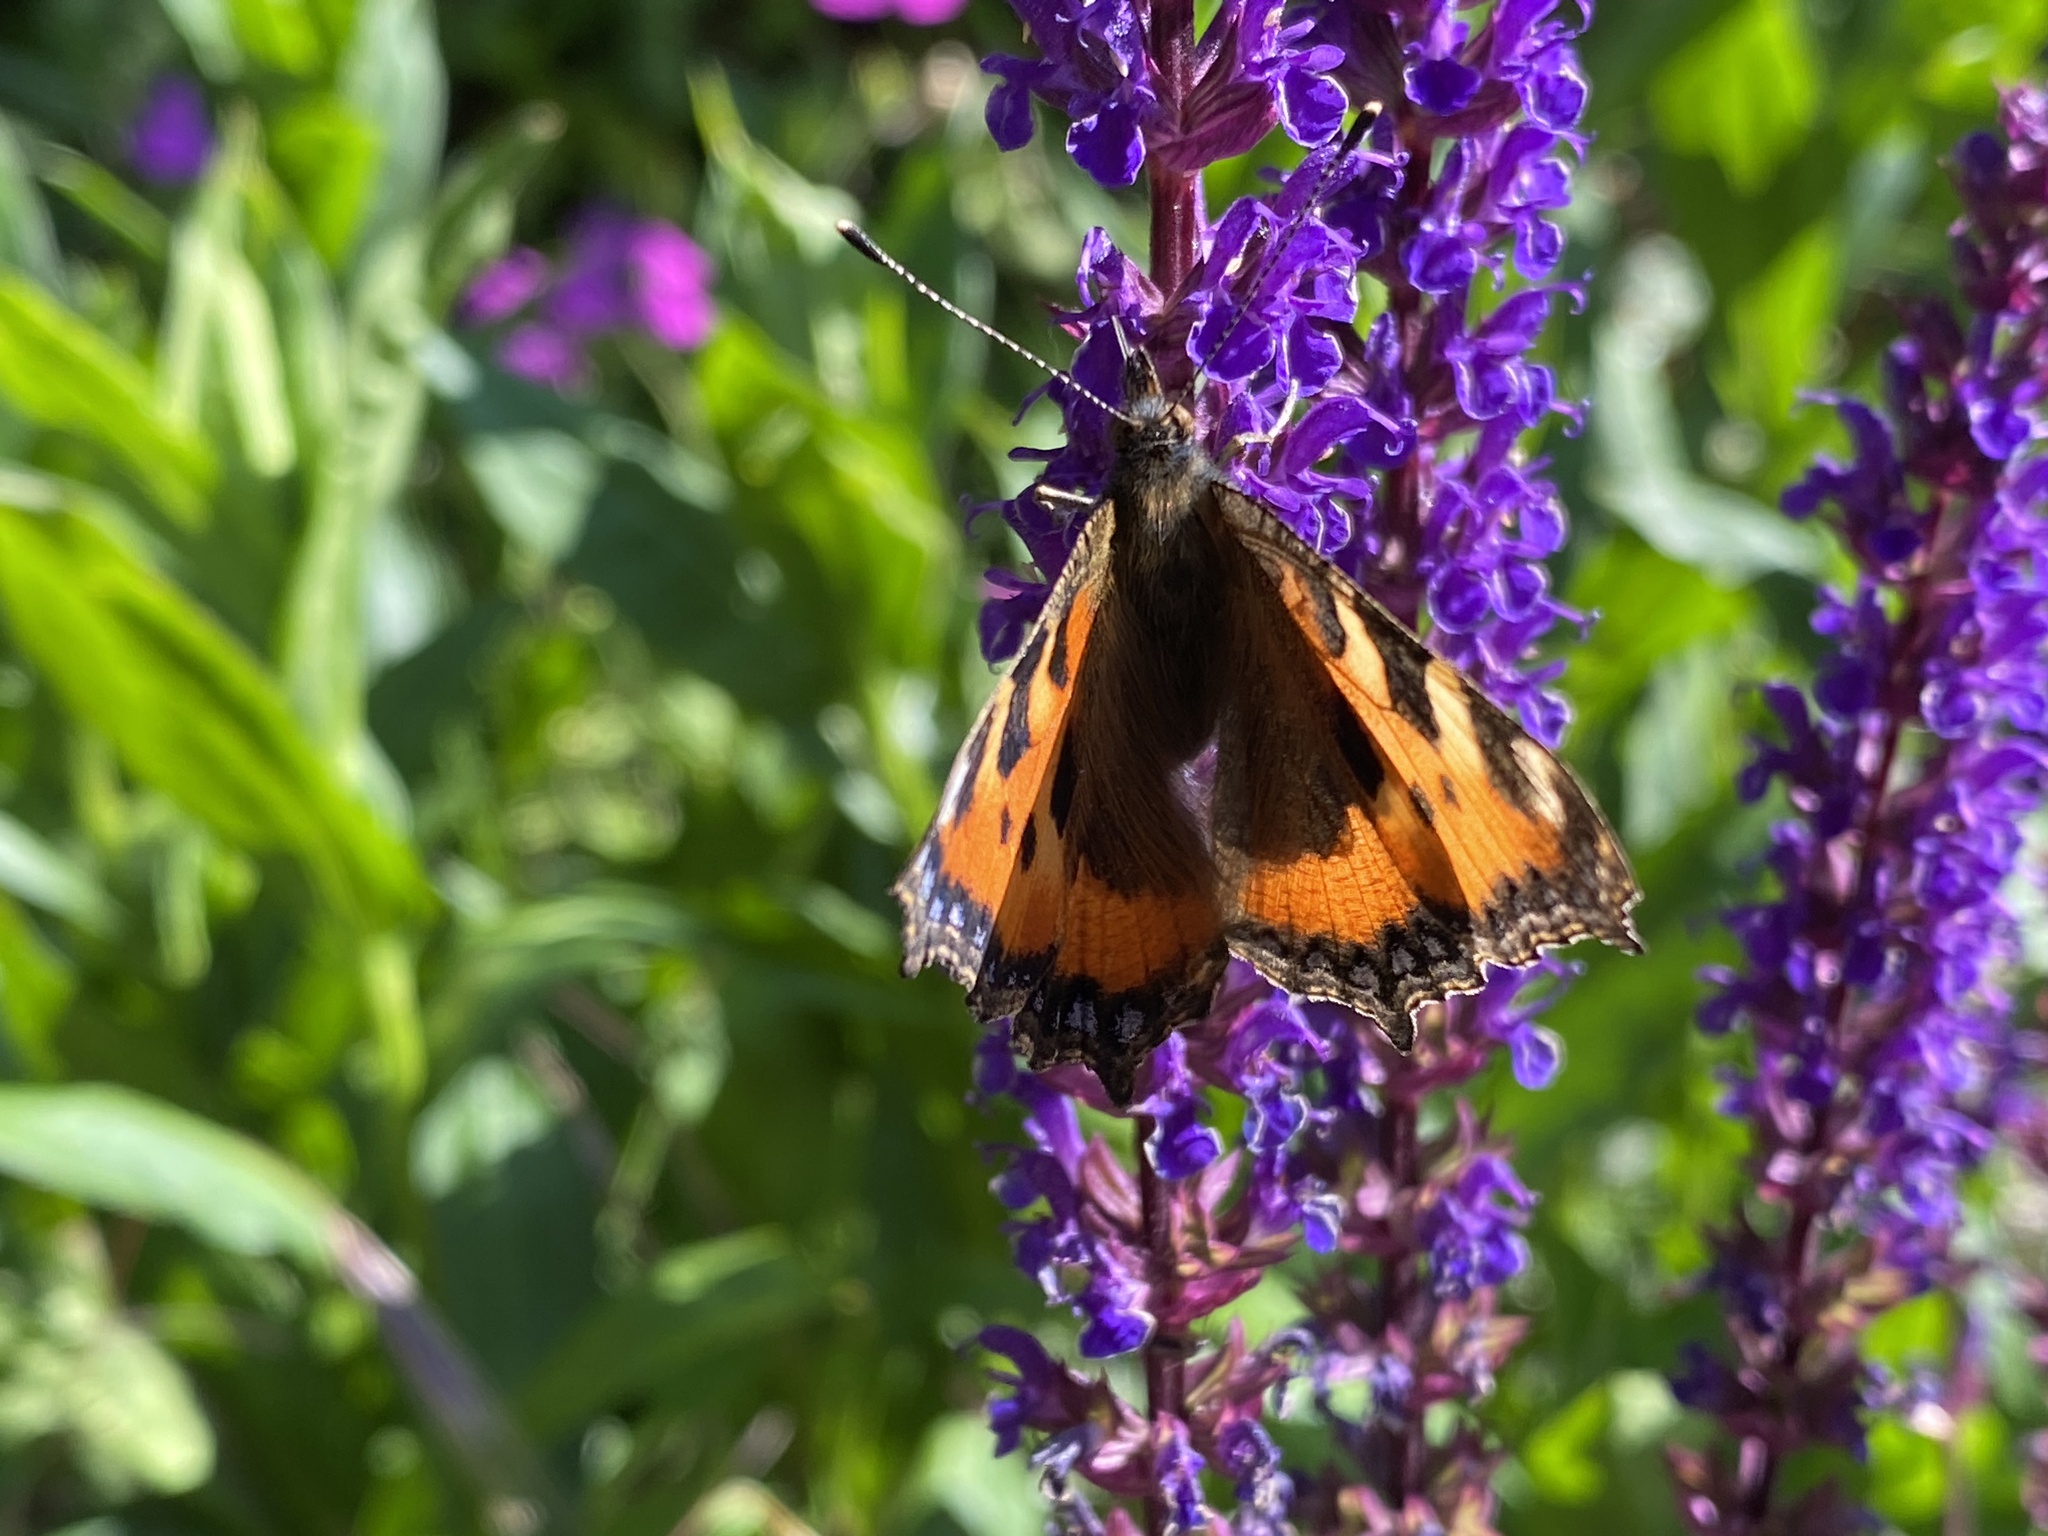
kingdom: Animalia
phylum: Arthropoda
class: Insecta
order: Lepidoptera
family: Nymphalidae
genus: Aglais
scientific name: Aglais urticae
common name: Small tortoiseshell
